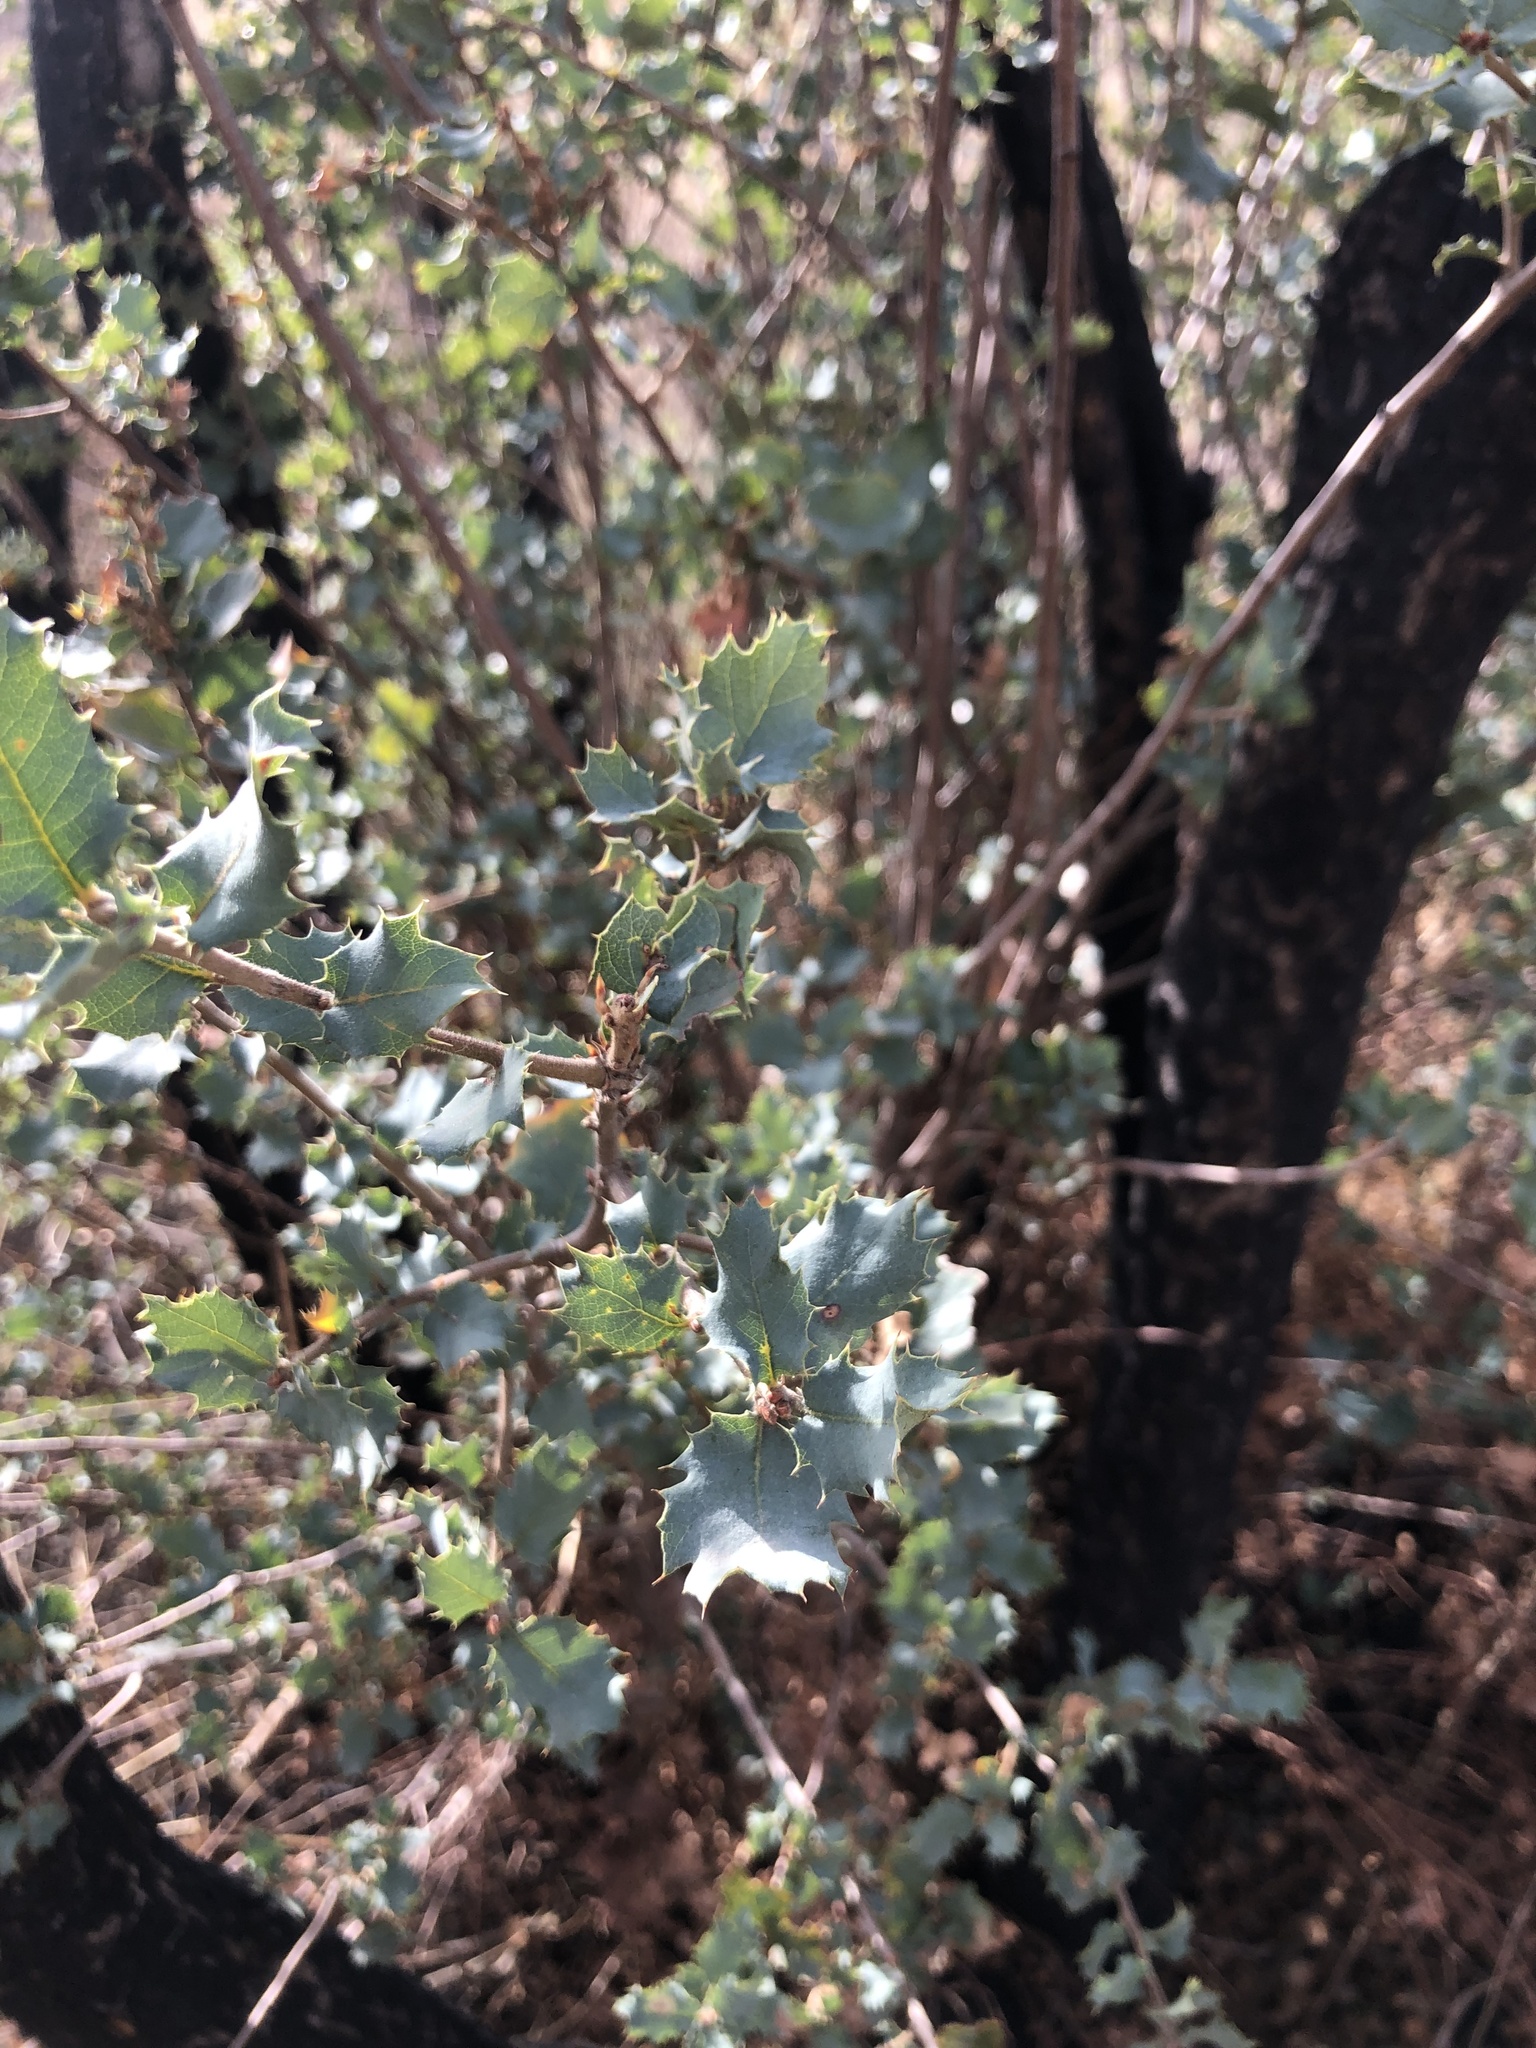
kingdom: Plantae
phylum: Tracheophyta
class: Magnoliopsida
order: Fagales
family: Fagaceae
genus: Quercus
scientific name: Quercus john-tuckeri
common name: Tucker's oak
